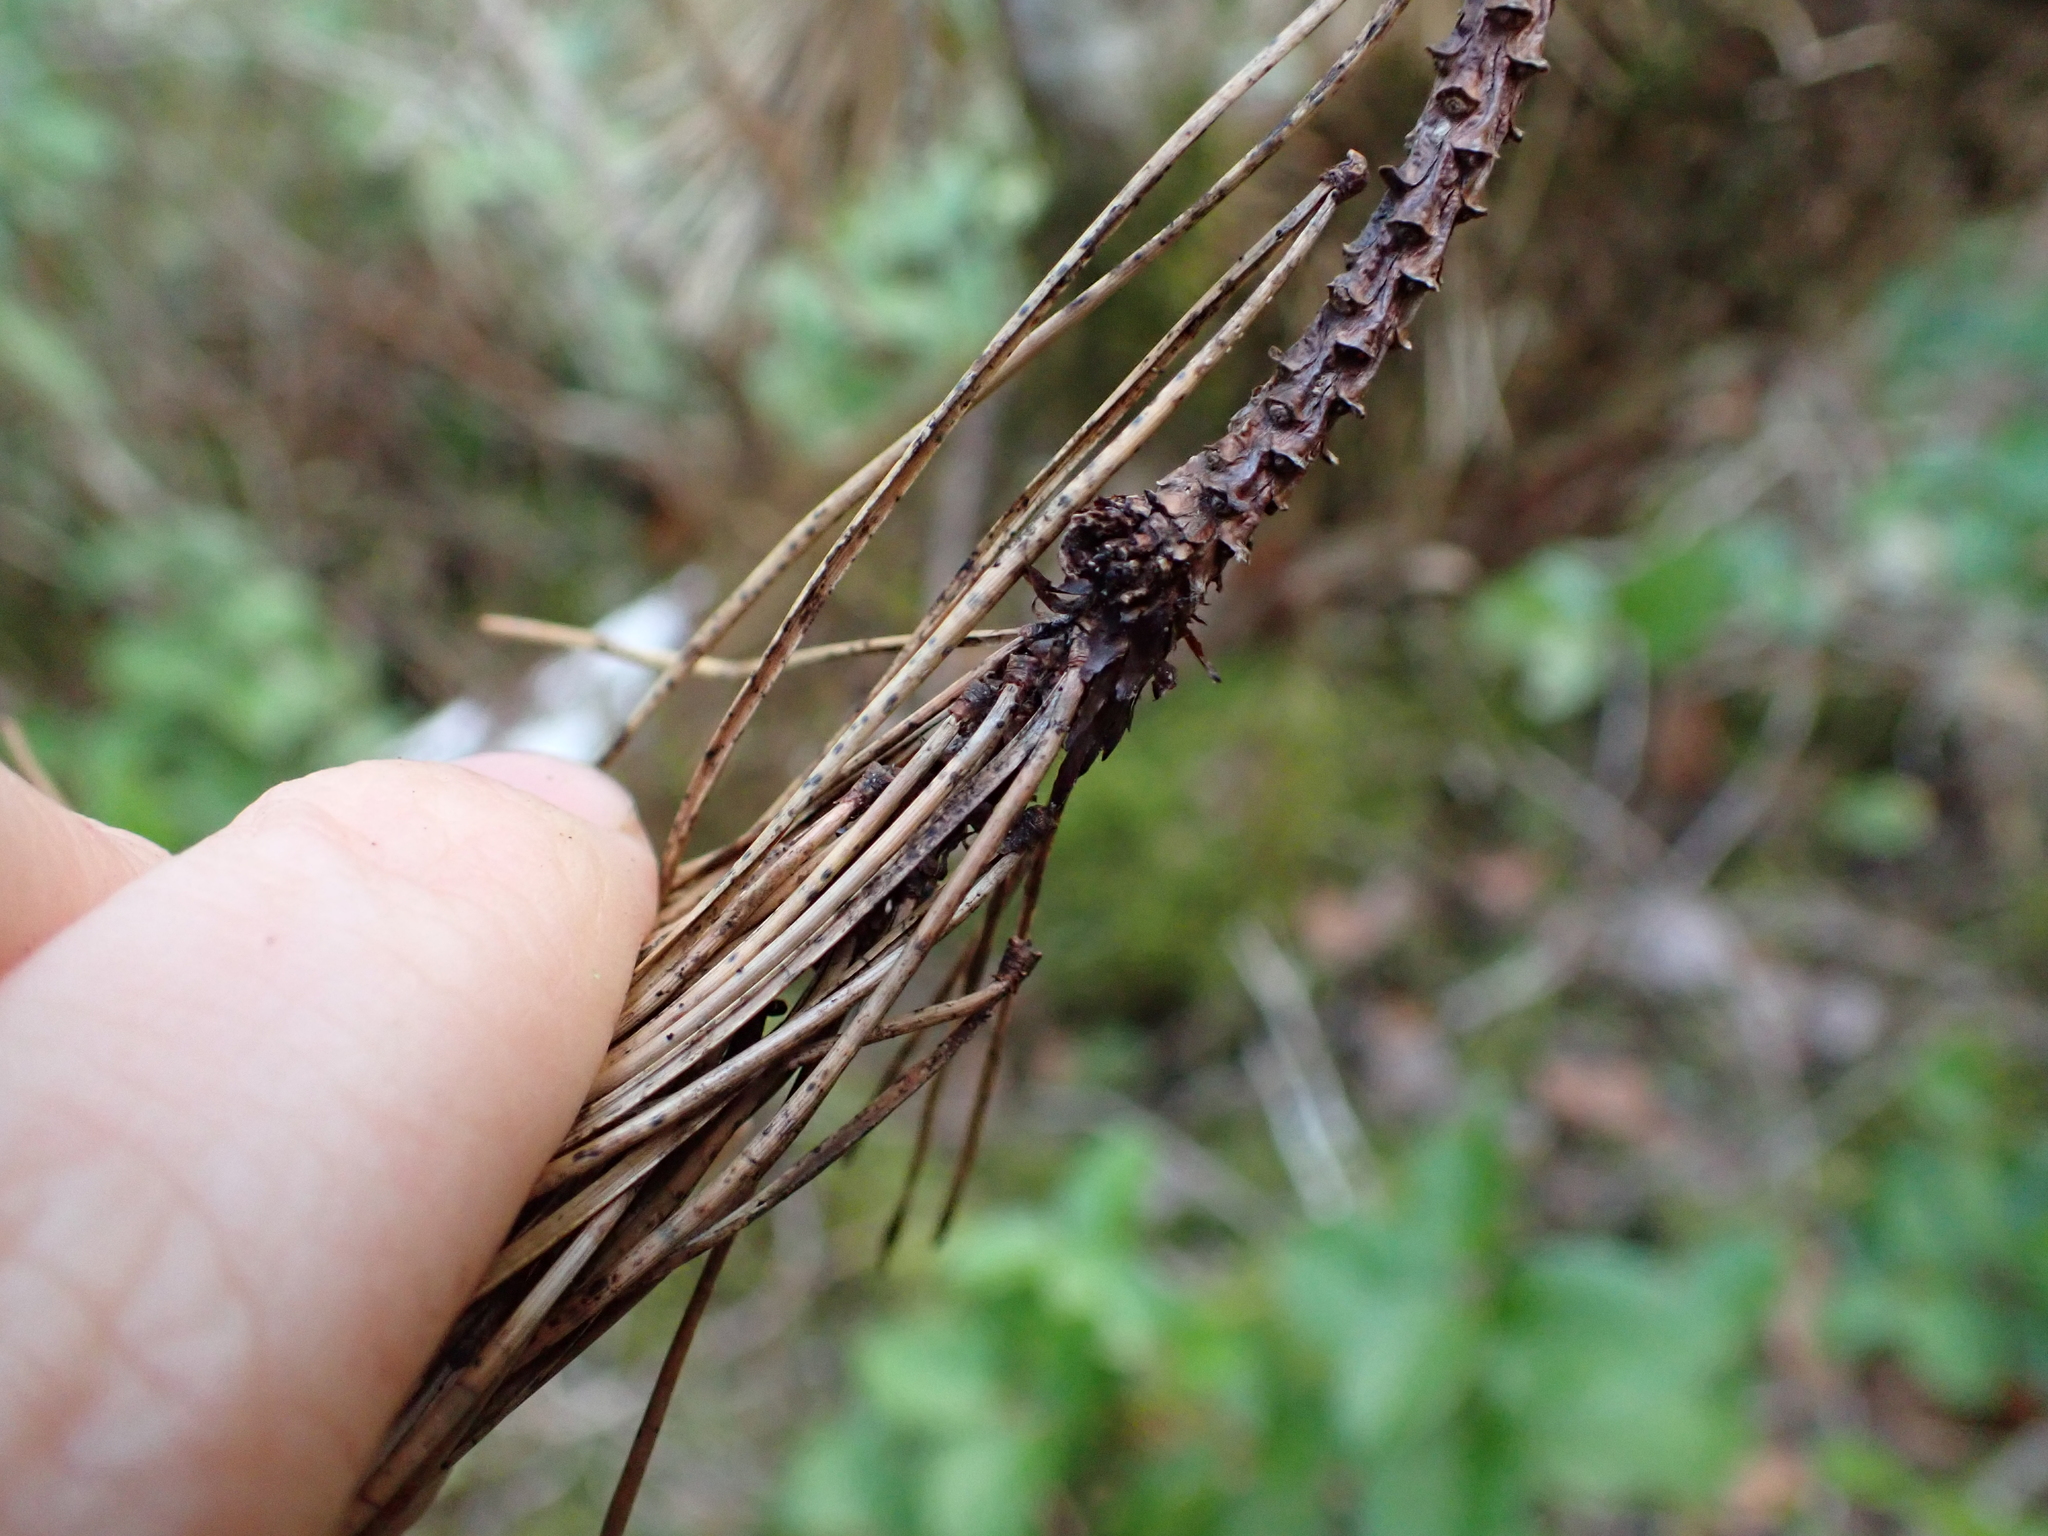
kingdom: Plantae
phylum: Tracheophyta
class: Pinopsida
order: Pinales
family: Pinaceae
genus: Pinus
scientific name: Pinus contorta
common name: Lodgepole pine
